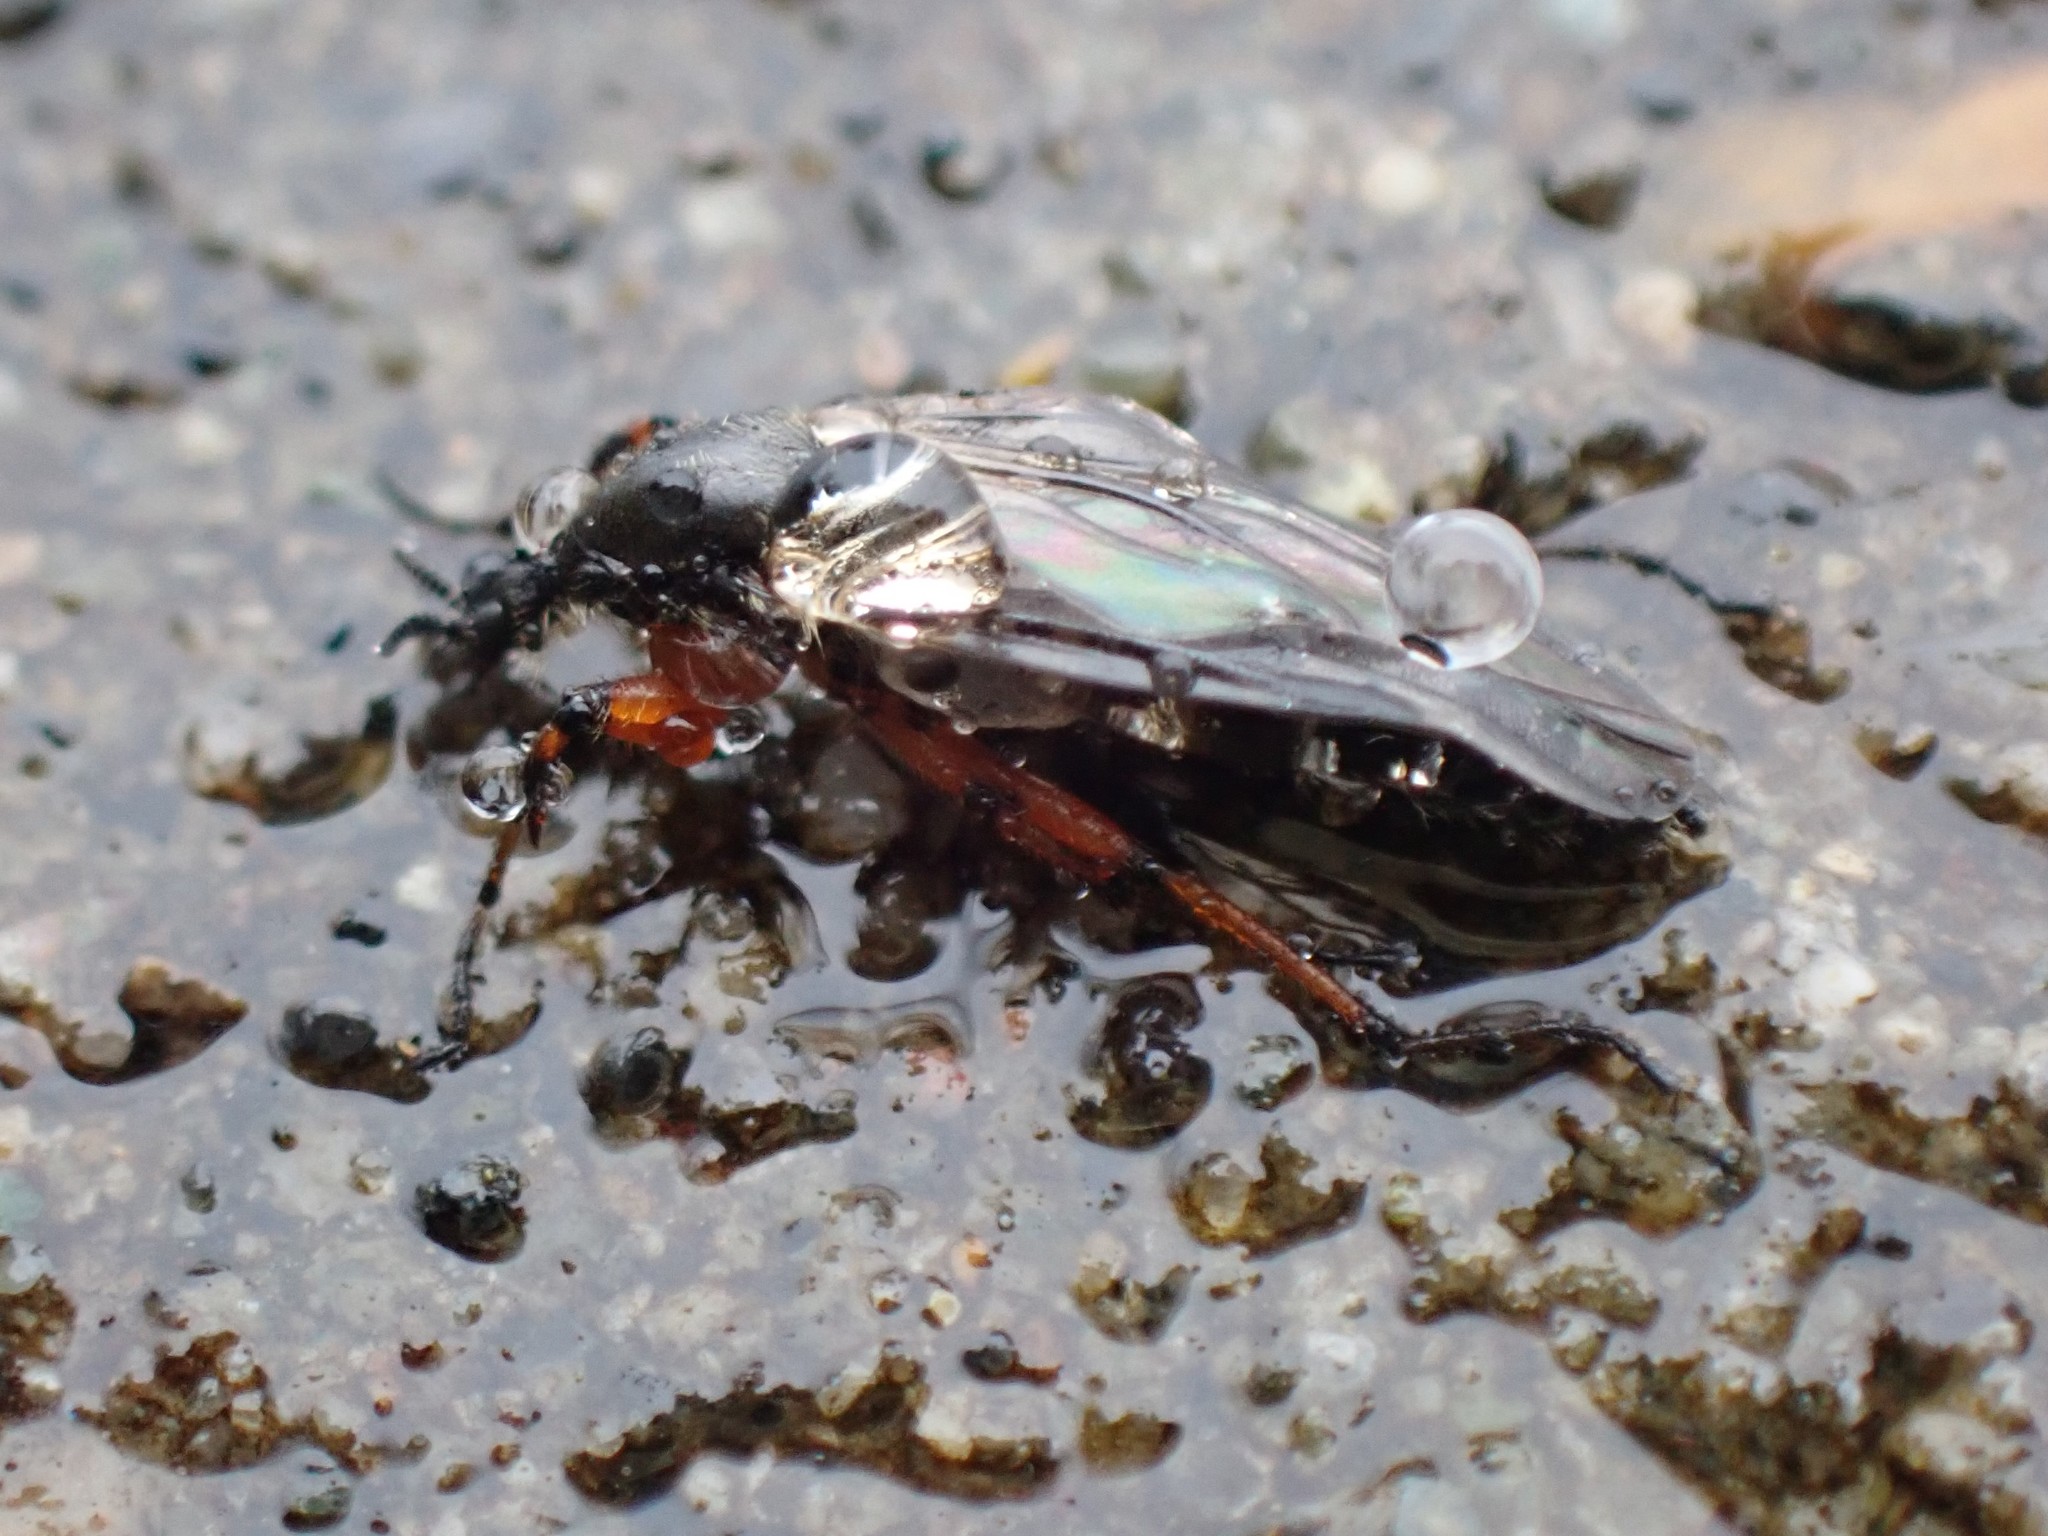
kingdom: Animalia
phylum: Arthropoda
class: Insecta
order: Diptera
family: Bibionidae
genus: Bibio
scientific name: Bibio
